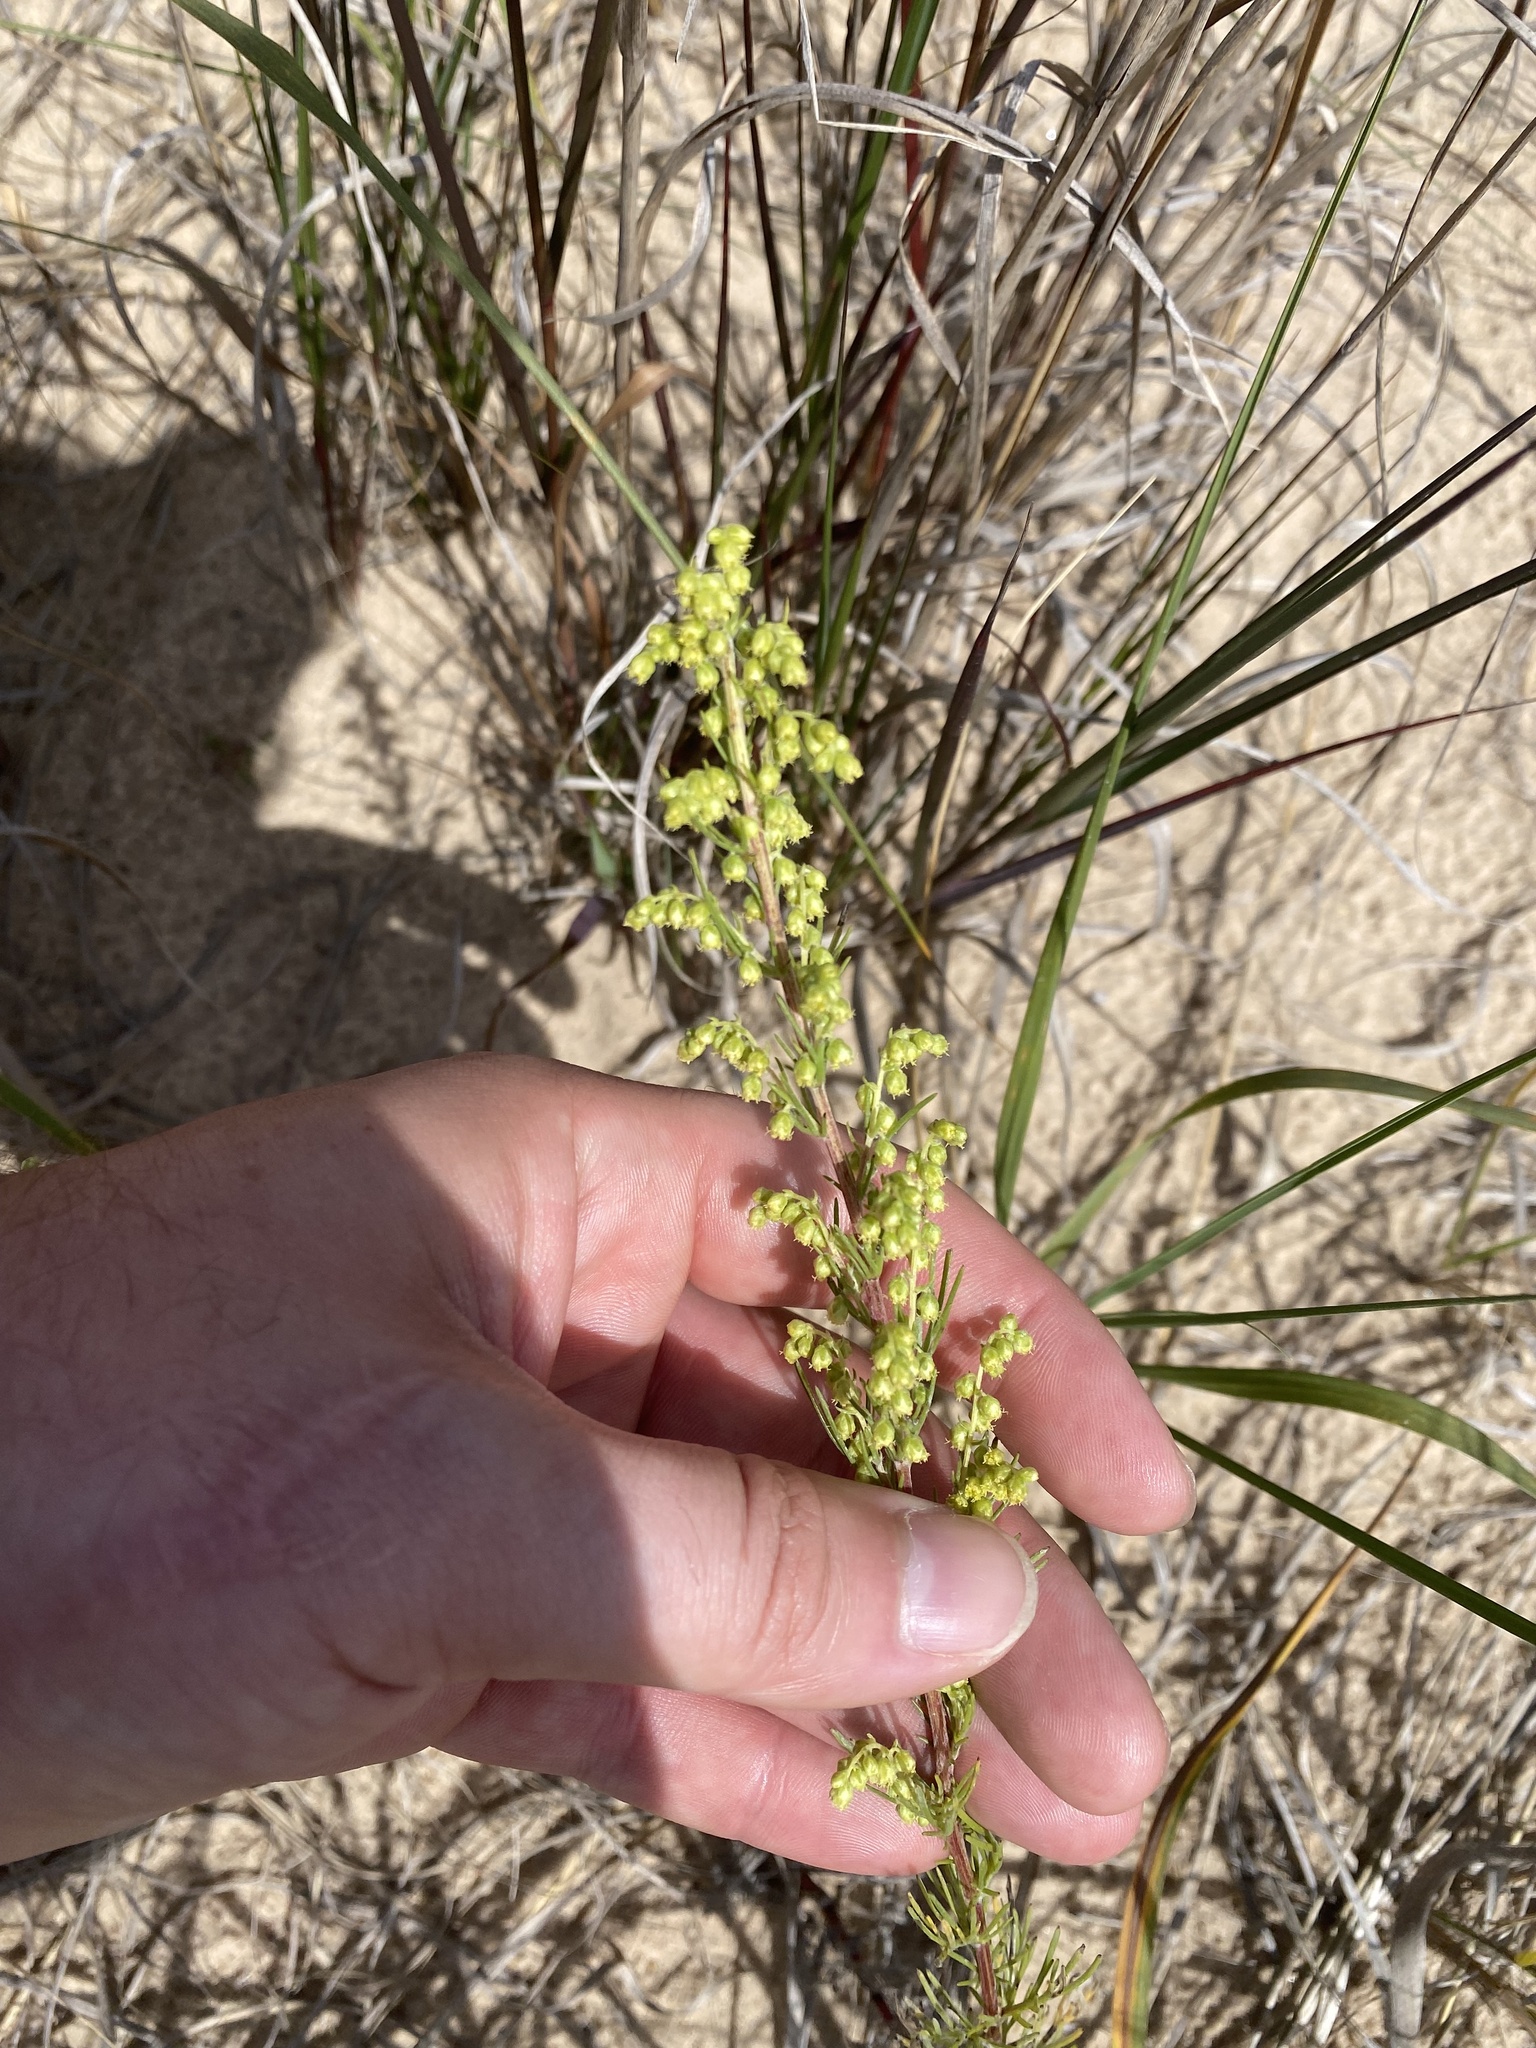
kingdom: Plantae
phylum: Tracheophyta
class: Magnoliopsida
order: Asterales
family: Asteraceae
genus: Artemisia
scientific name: Artemisia campestris
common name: Field wormwood
